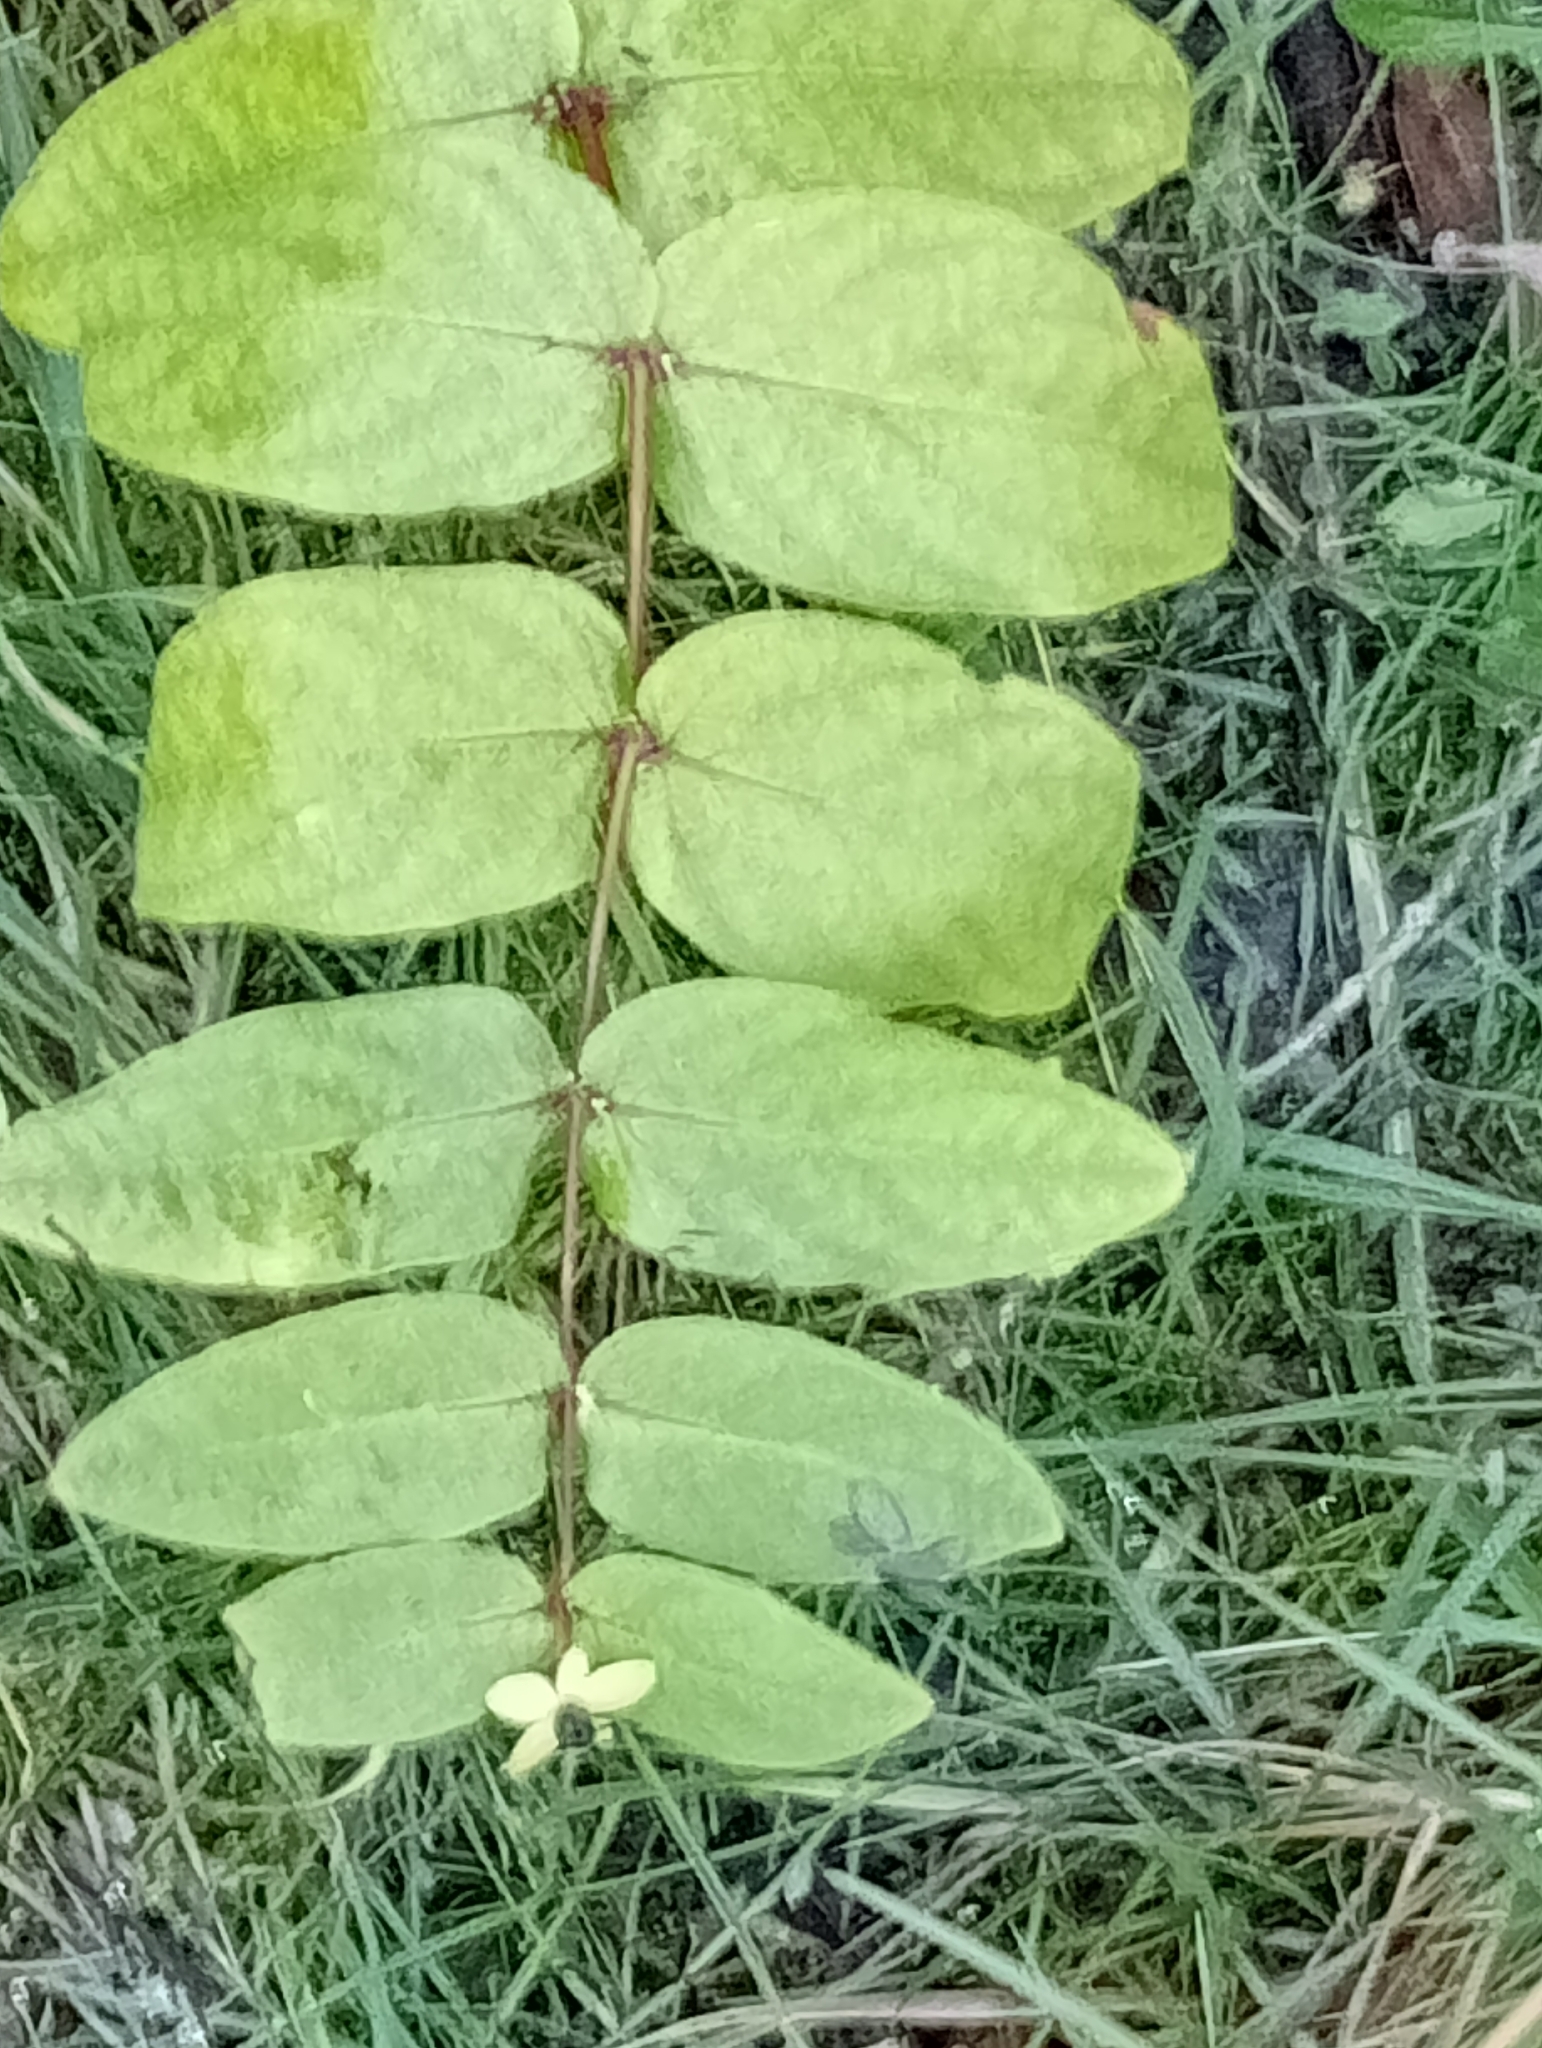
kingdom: Plantae
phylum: Tracheophyta
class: Magnoliopsida
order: Malpighiales
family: Hypericaceae
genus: Hypericum
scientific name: Hypericum androsaemum
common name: Sweet-amber
